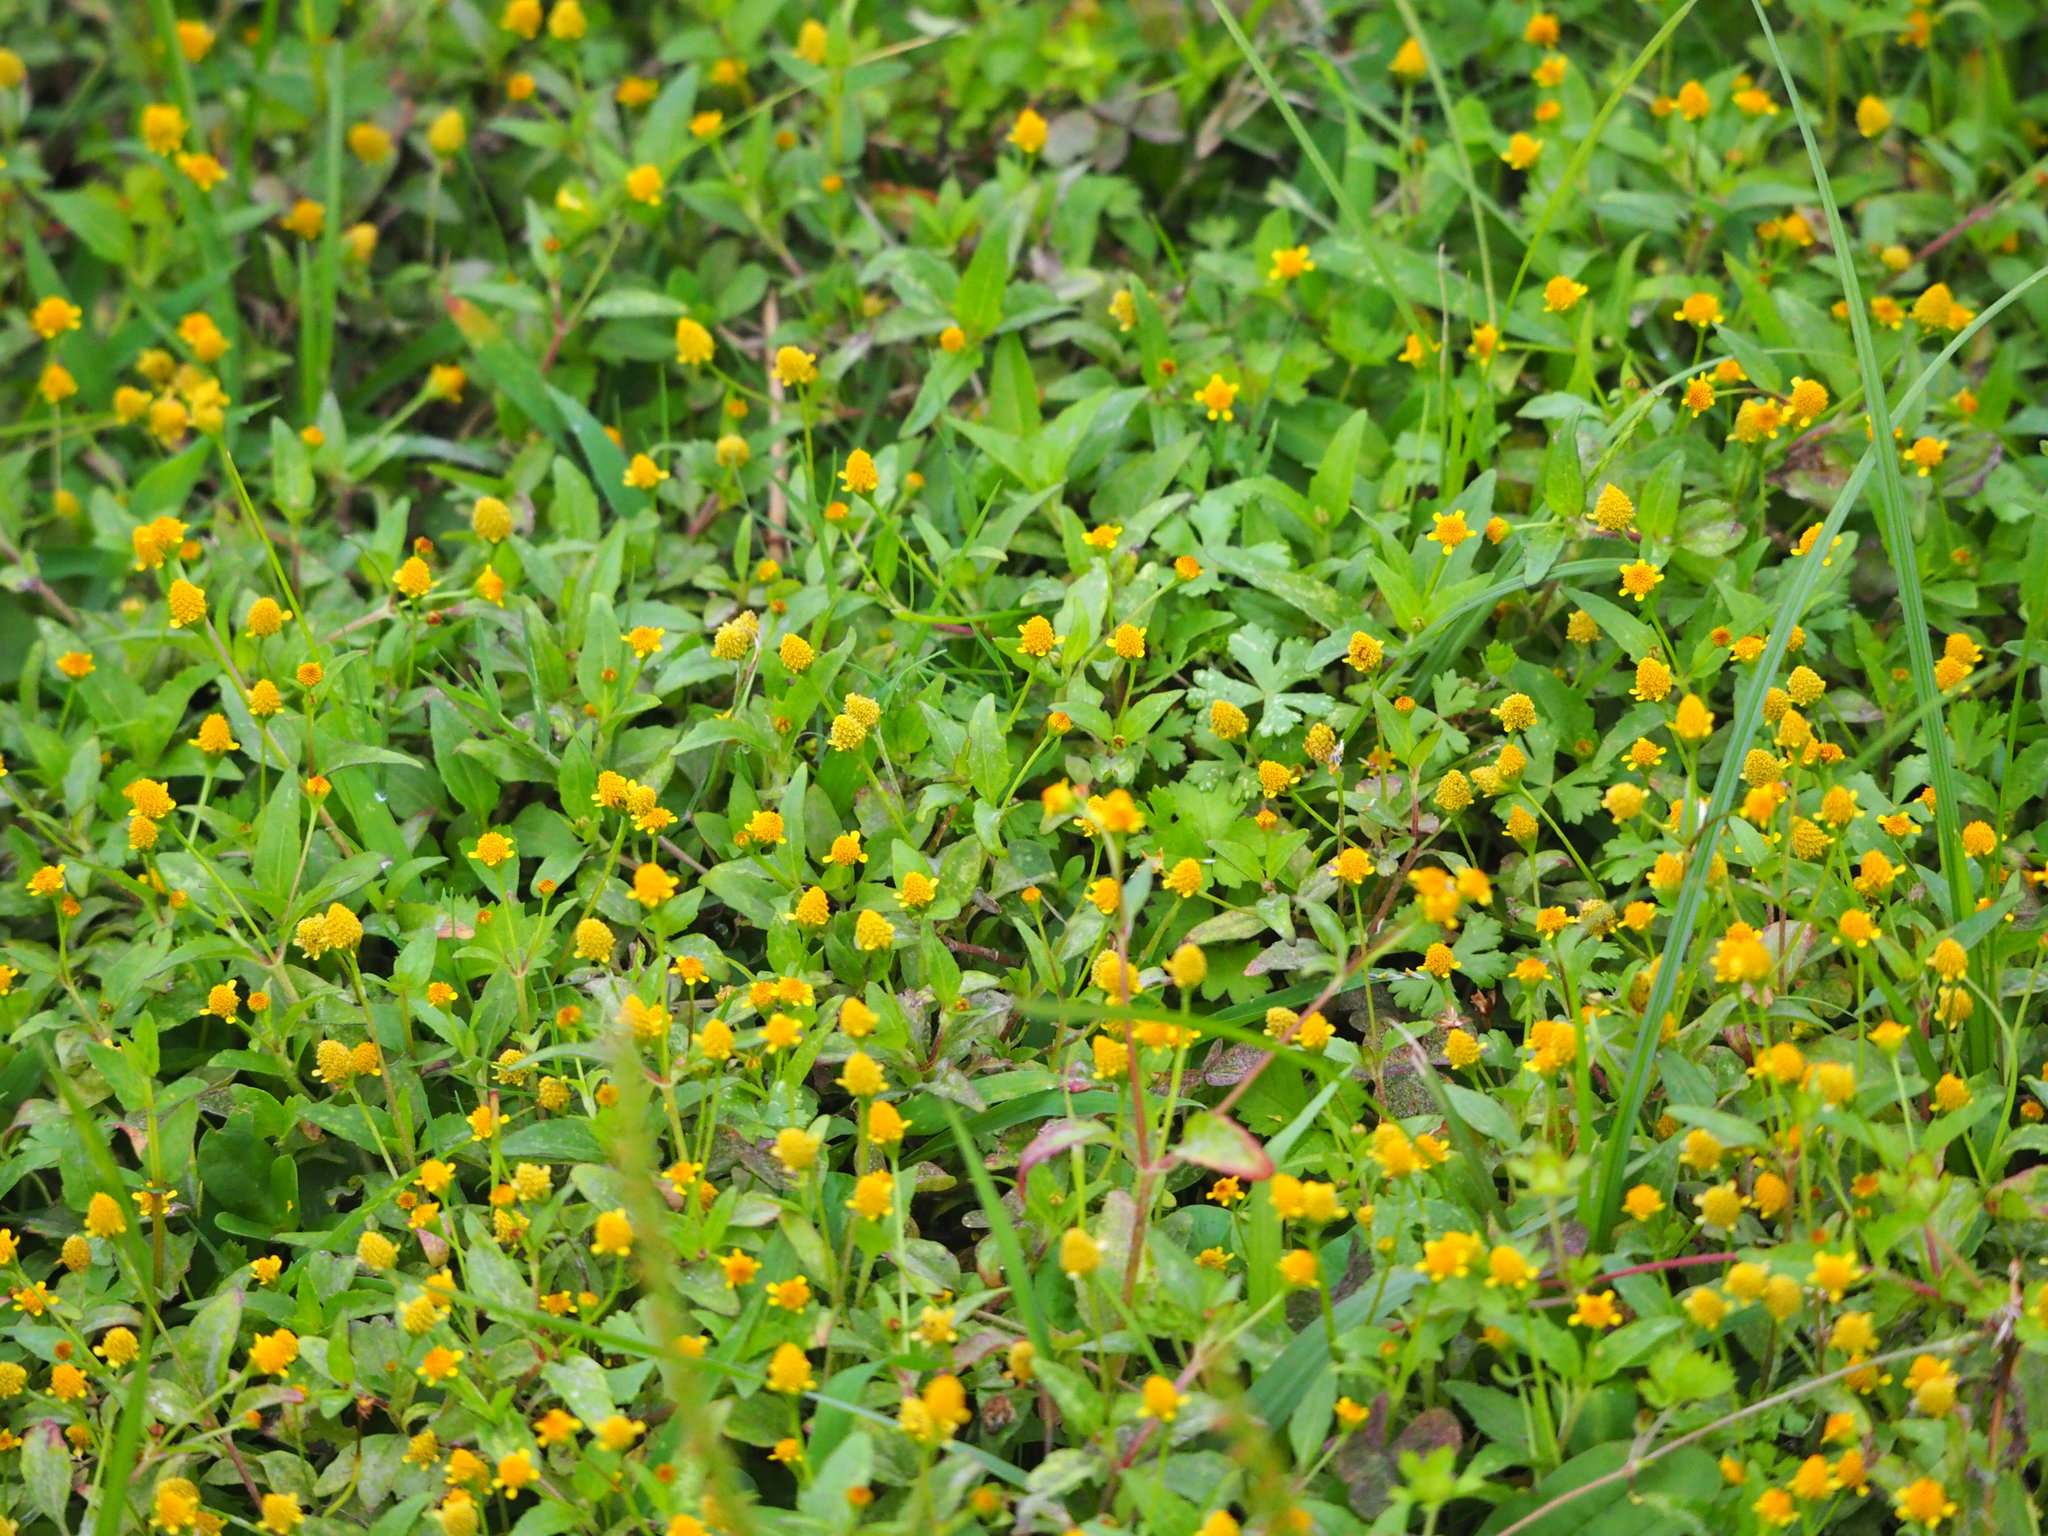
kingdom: Plantae
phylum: Tracheophyta
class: Magnoliopsida
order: Asterales
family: Asteraceae
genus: Acmella
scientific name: Acmella uliginosa
